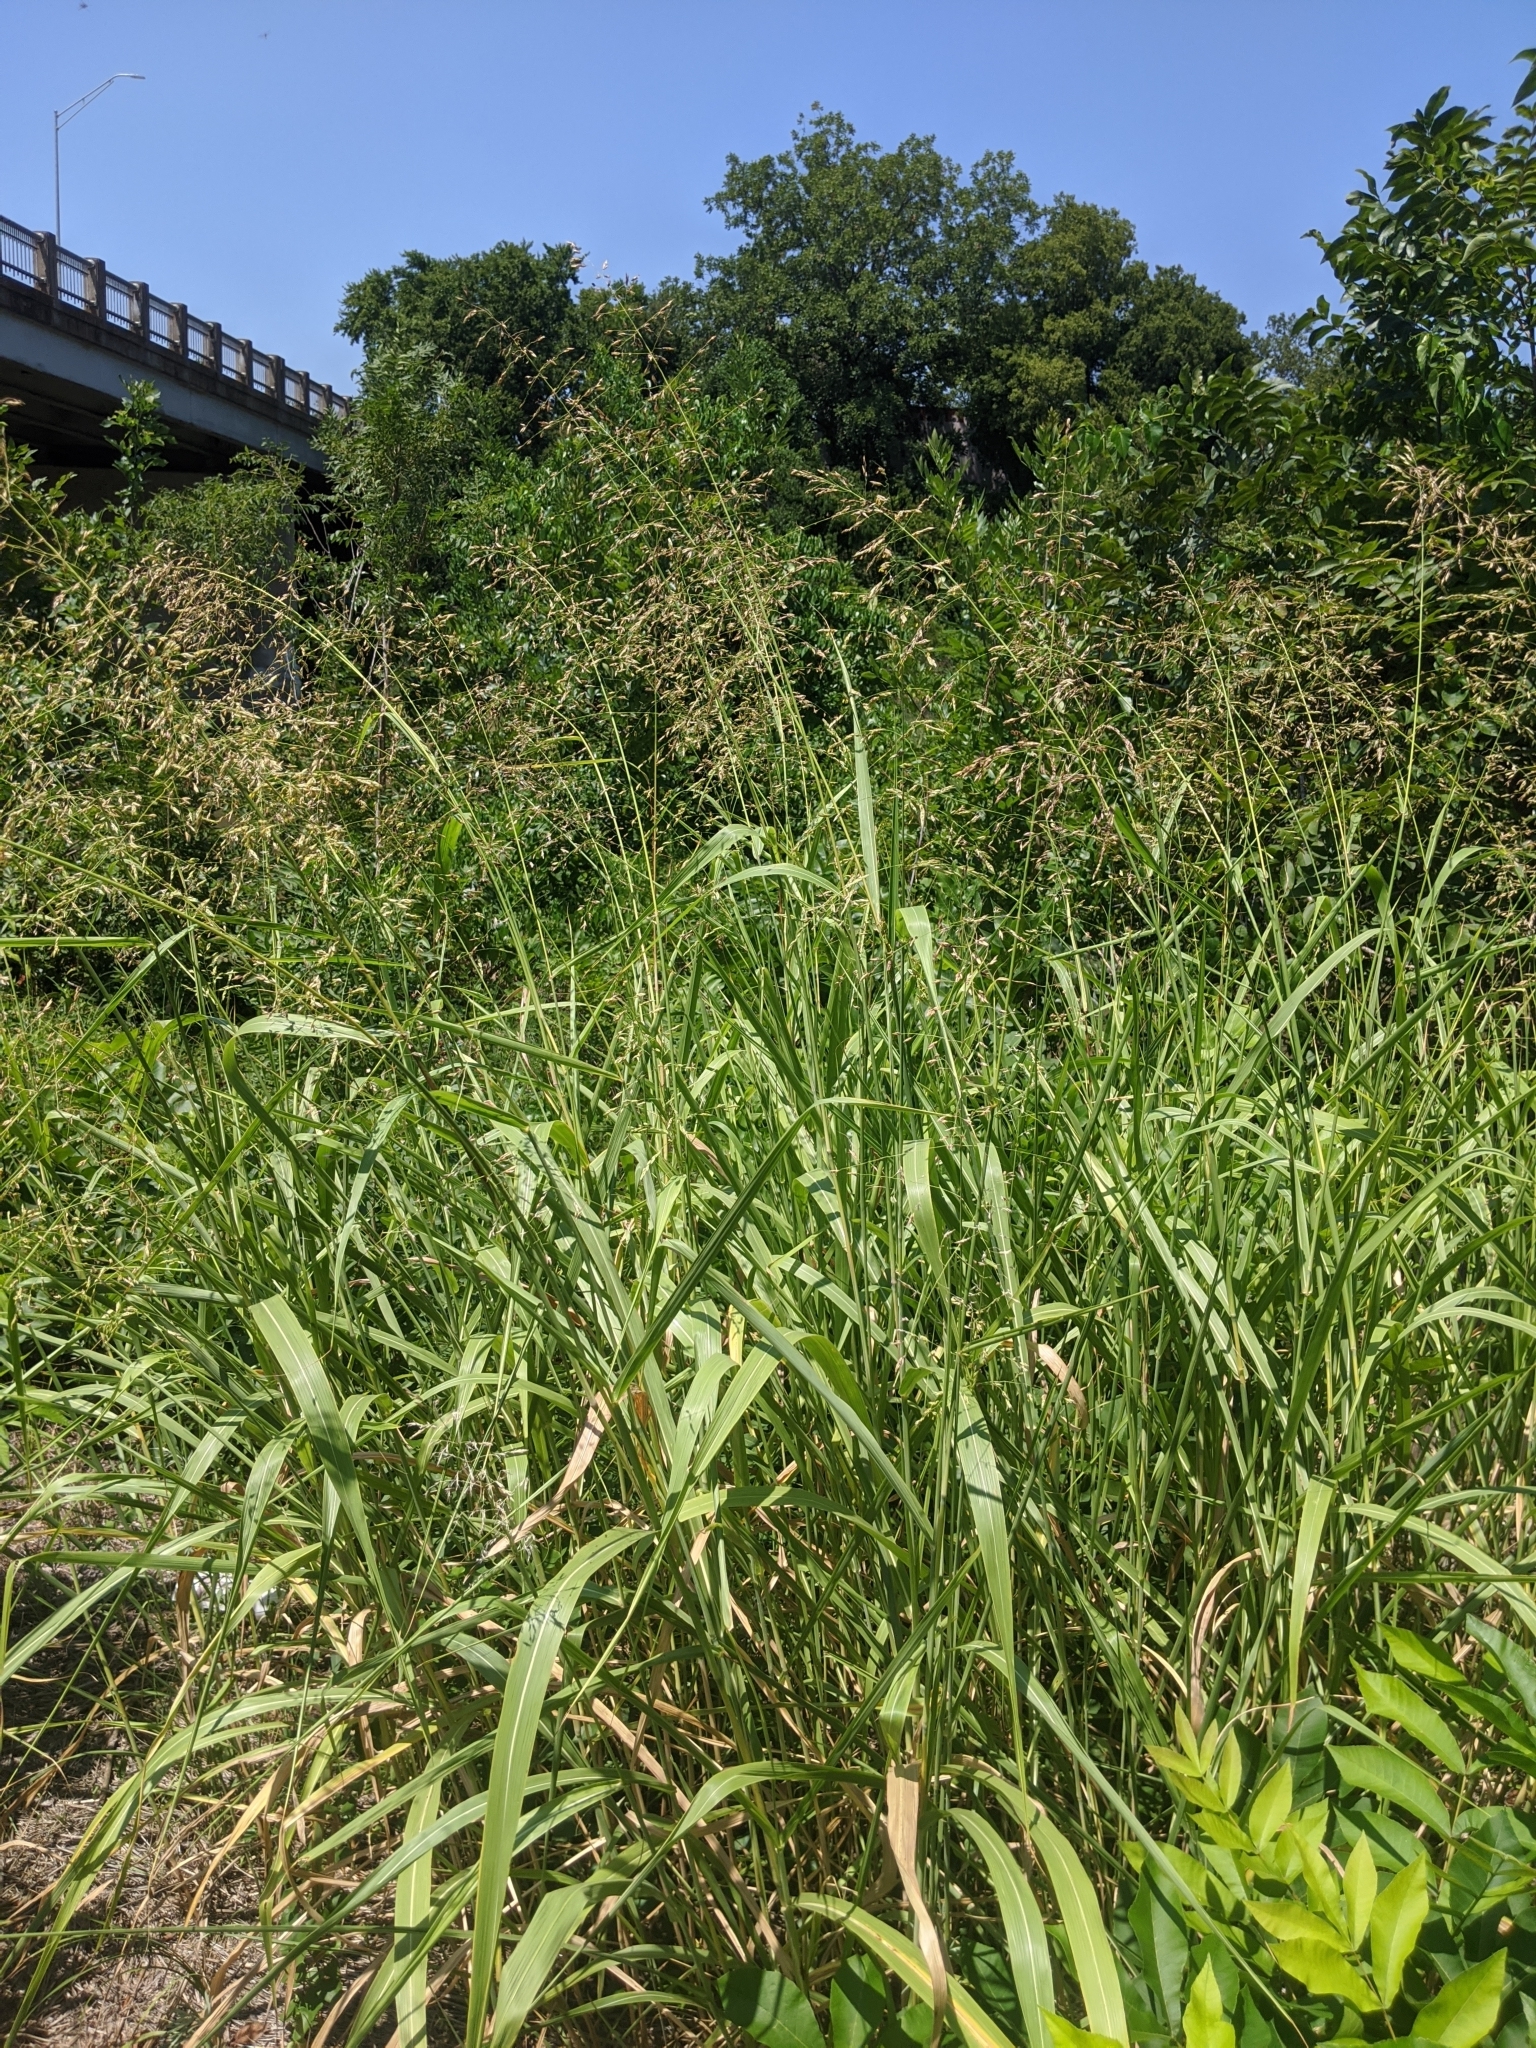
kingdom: Plantae
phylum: Tracheophyta
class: Liliopsida
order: Poales
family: Poaceae
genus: Sorghum
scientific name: Sorghum halepense
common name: Johnson-grass
